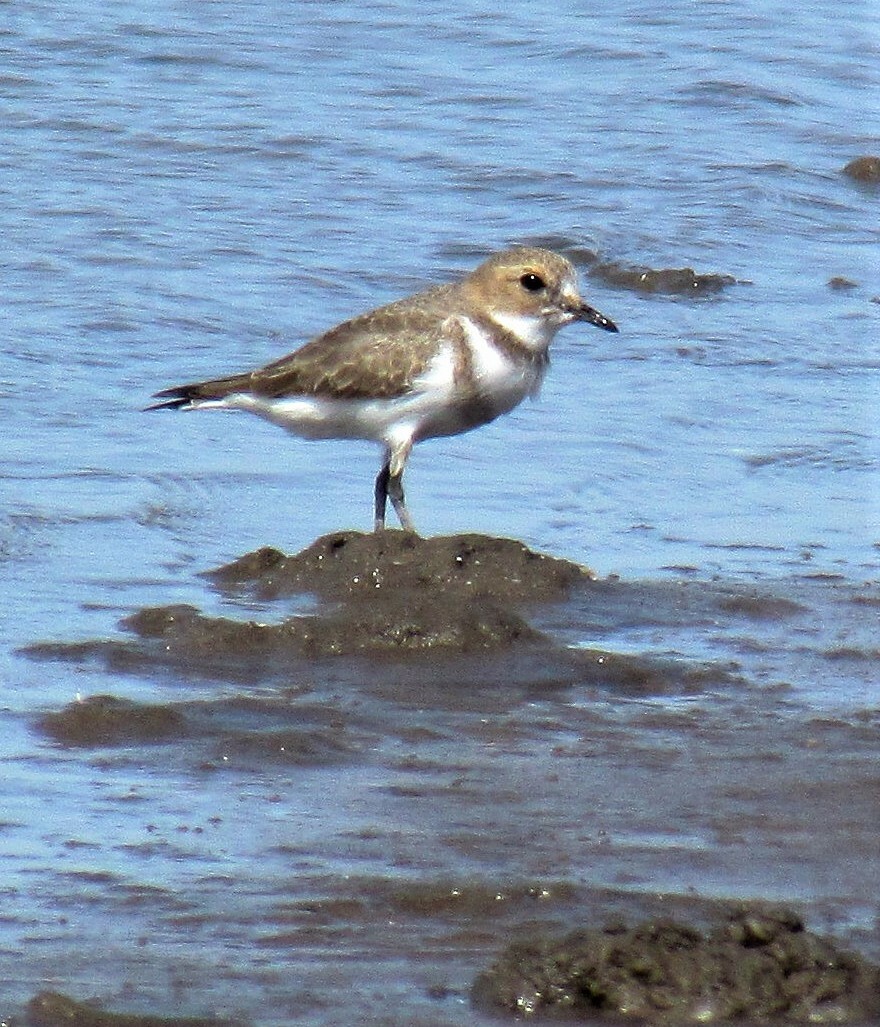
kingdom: Animalia
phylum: Chordata
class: Aves
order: Charadriiformes
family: Charadriidae
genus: Anarhynchus
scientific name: Anarhynchus
